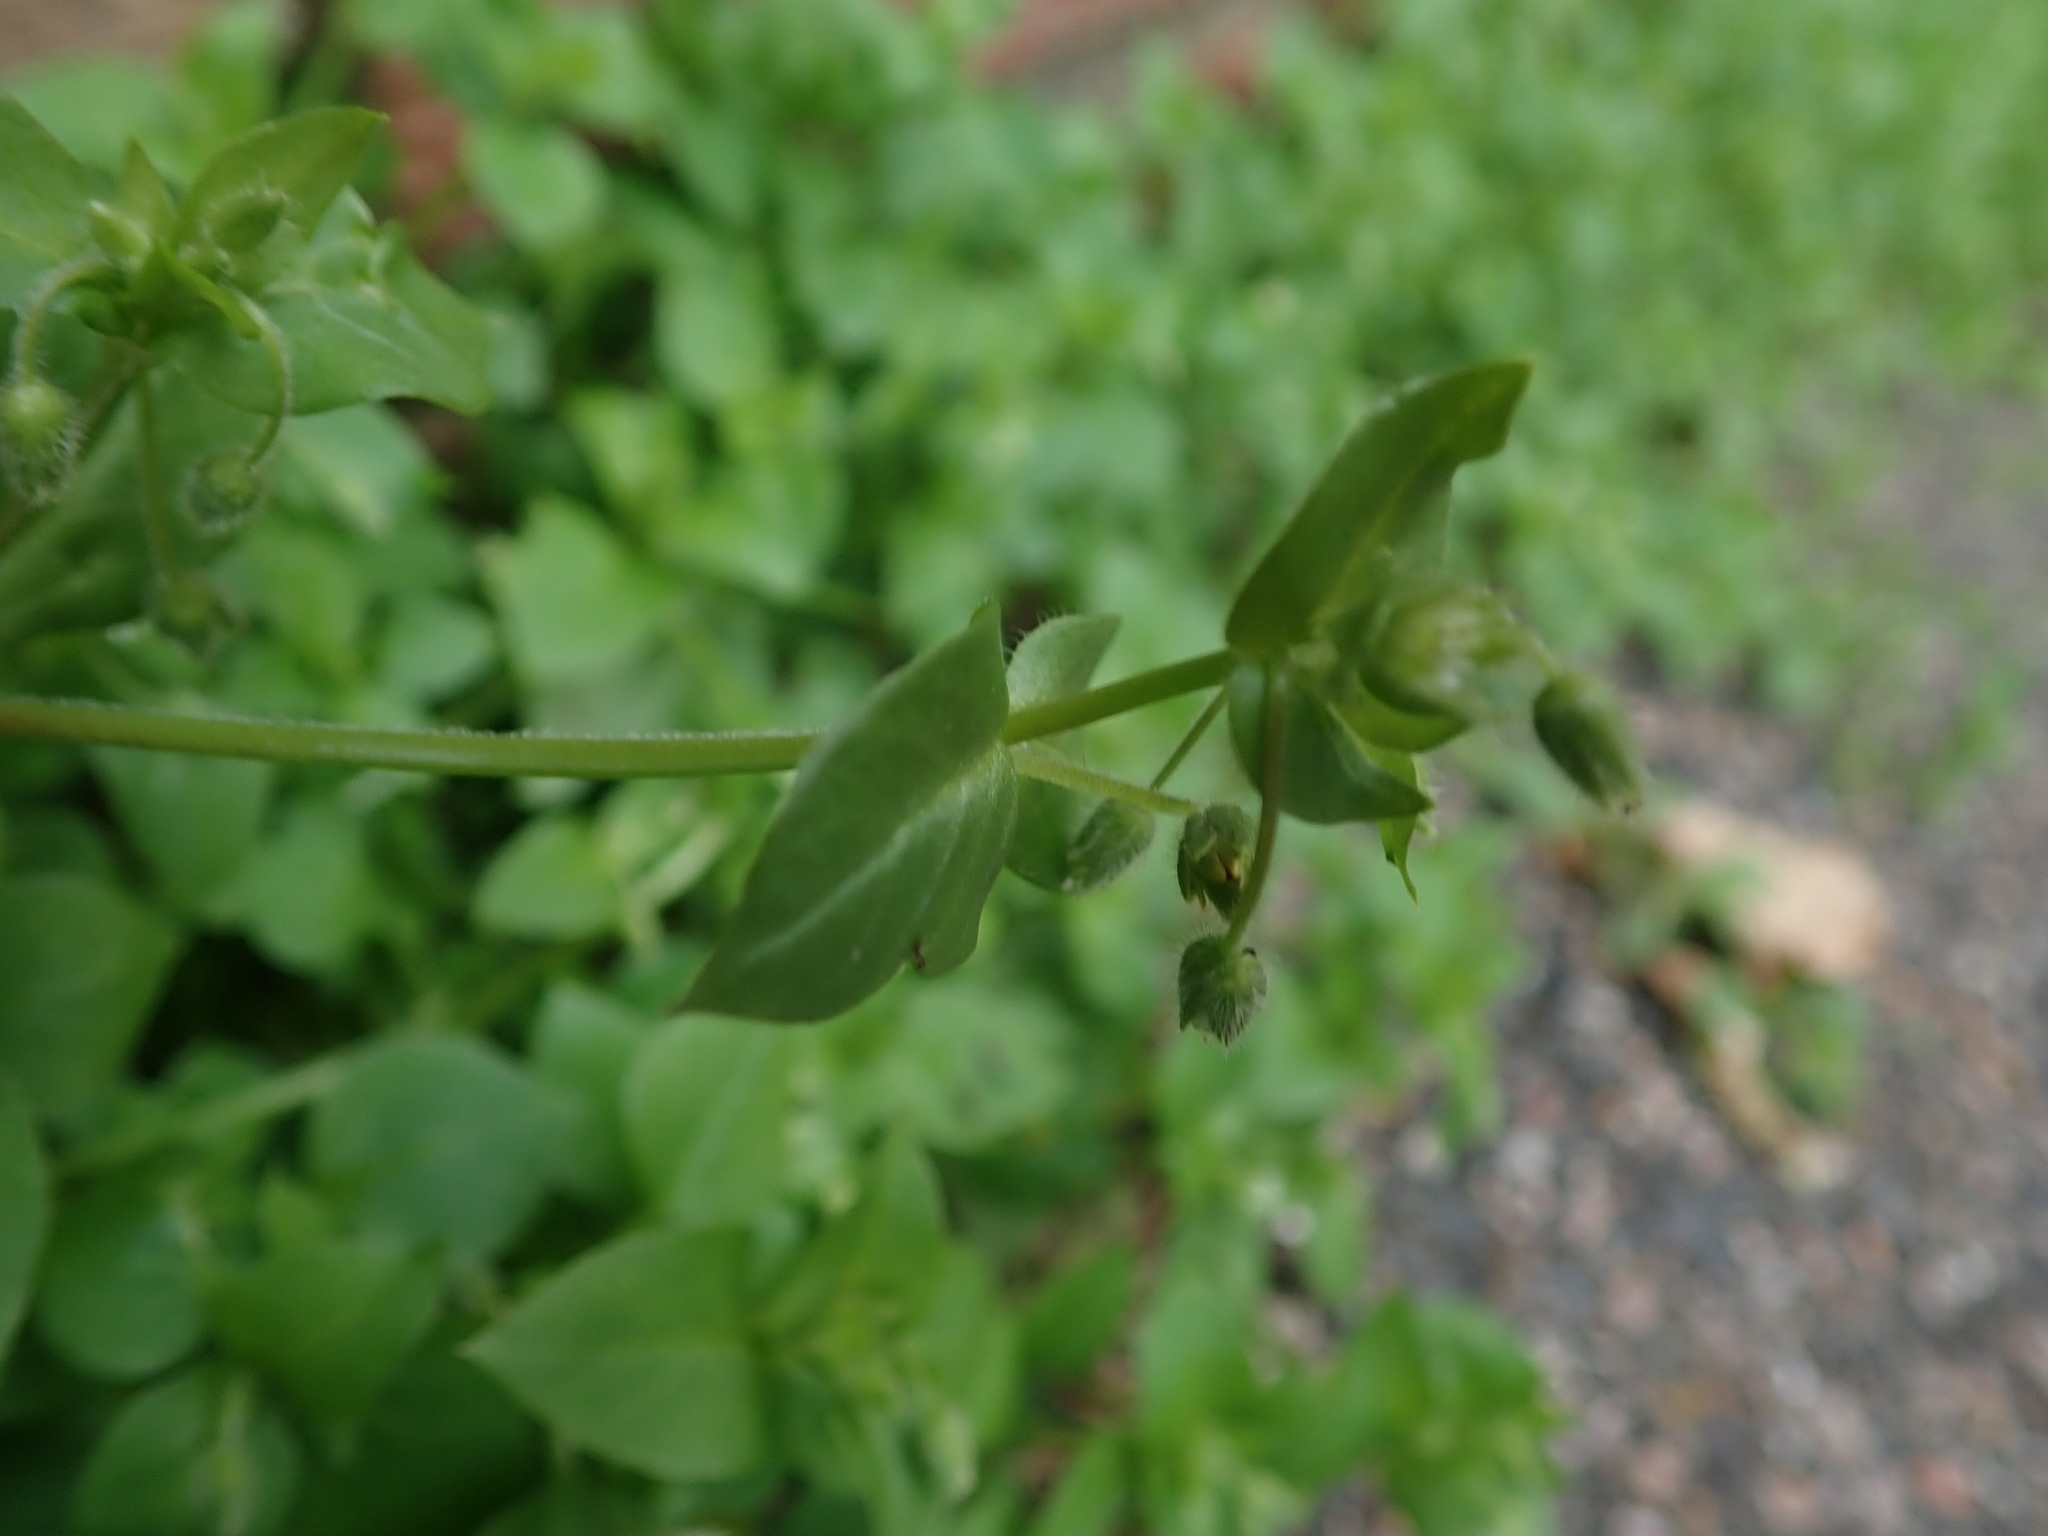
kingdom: Plantae
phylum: Tracheophyta
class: Magnoliopsida
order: Caryophyllales
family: Caryophyllaceae
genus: Stellaria
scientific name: Stellaria media
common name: Common chickweed
